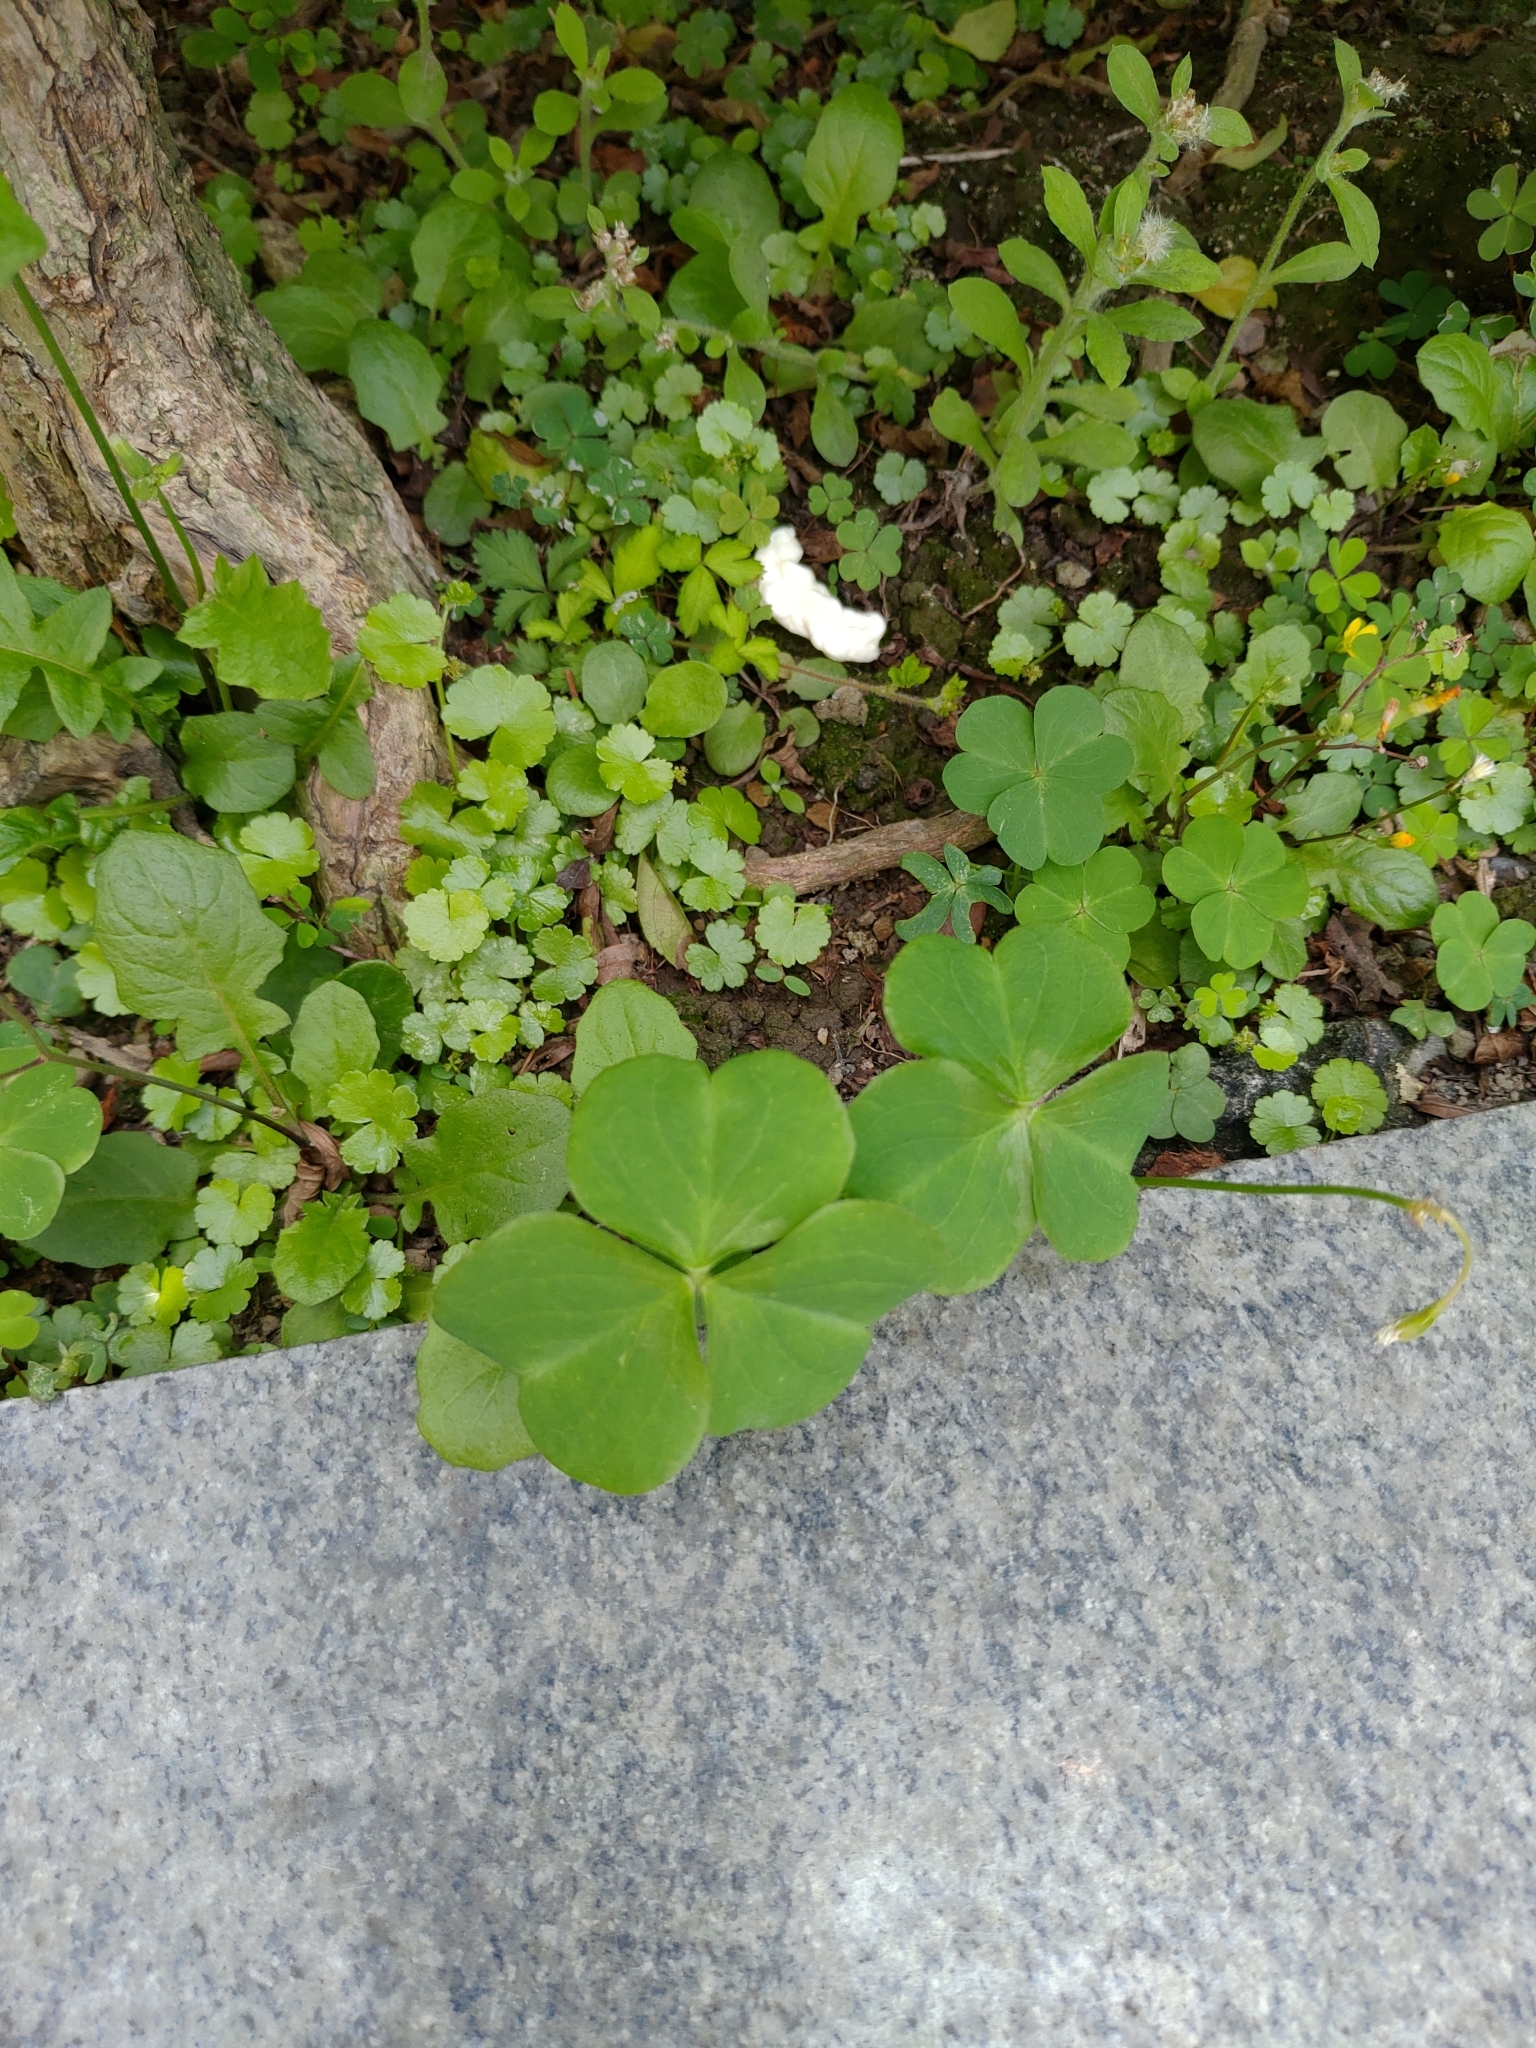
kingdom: Plantae
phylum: Tracheophyta
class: Magnoliopsida
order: Oxalidales
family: Oxalidaceae
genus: Oxalis
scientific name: Oxalis debilis
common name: Large-flowered pink-sorrel
